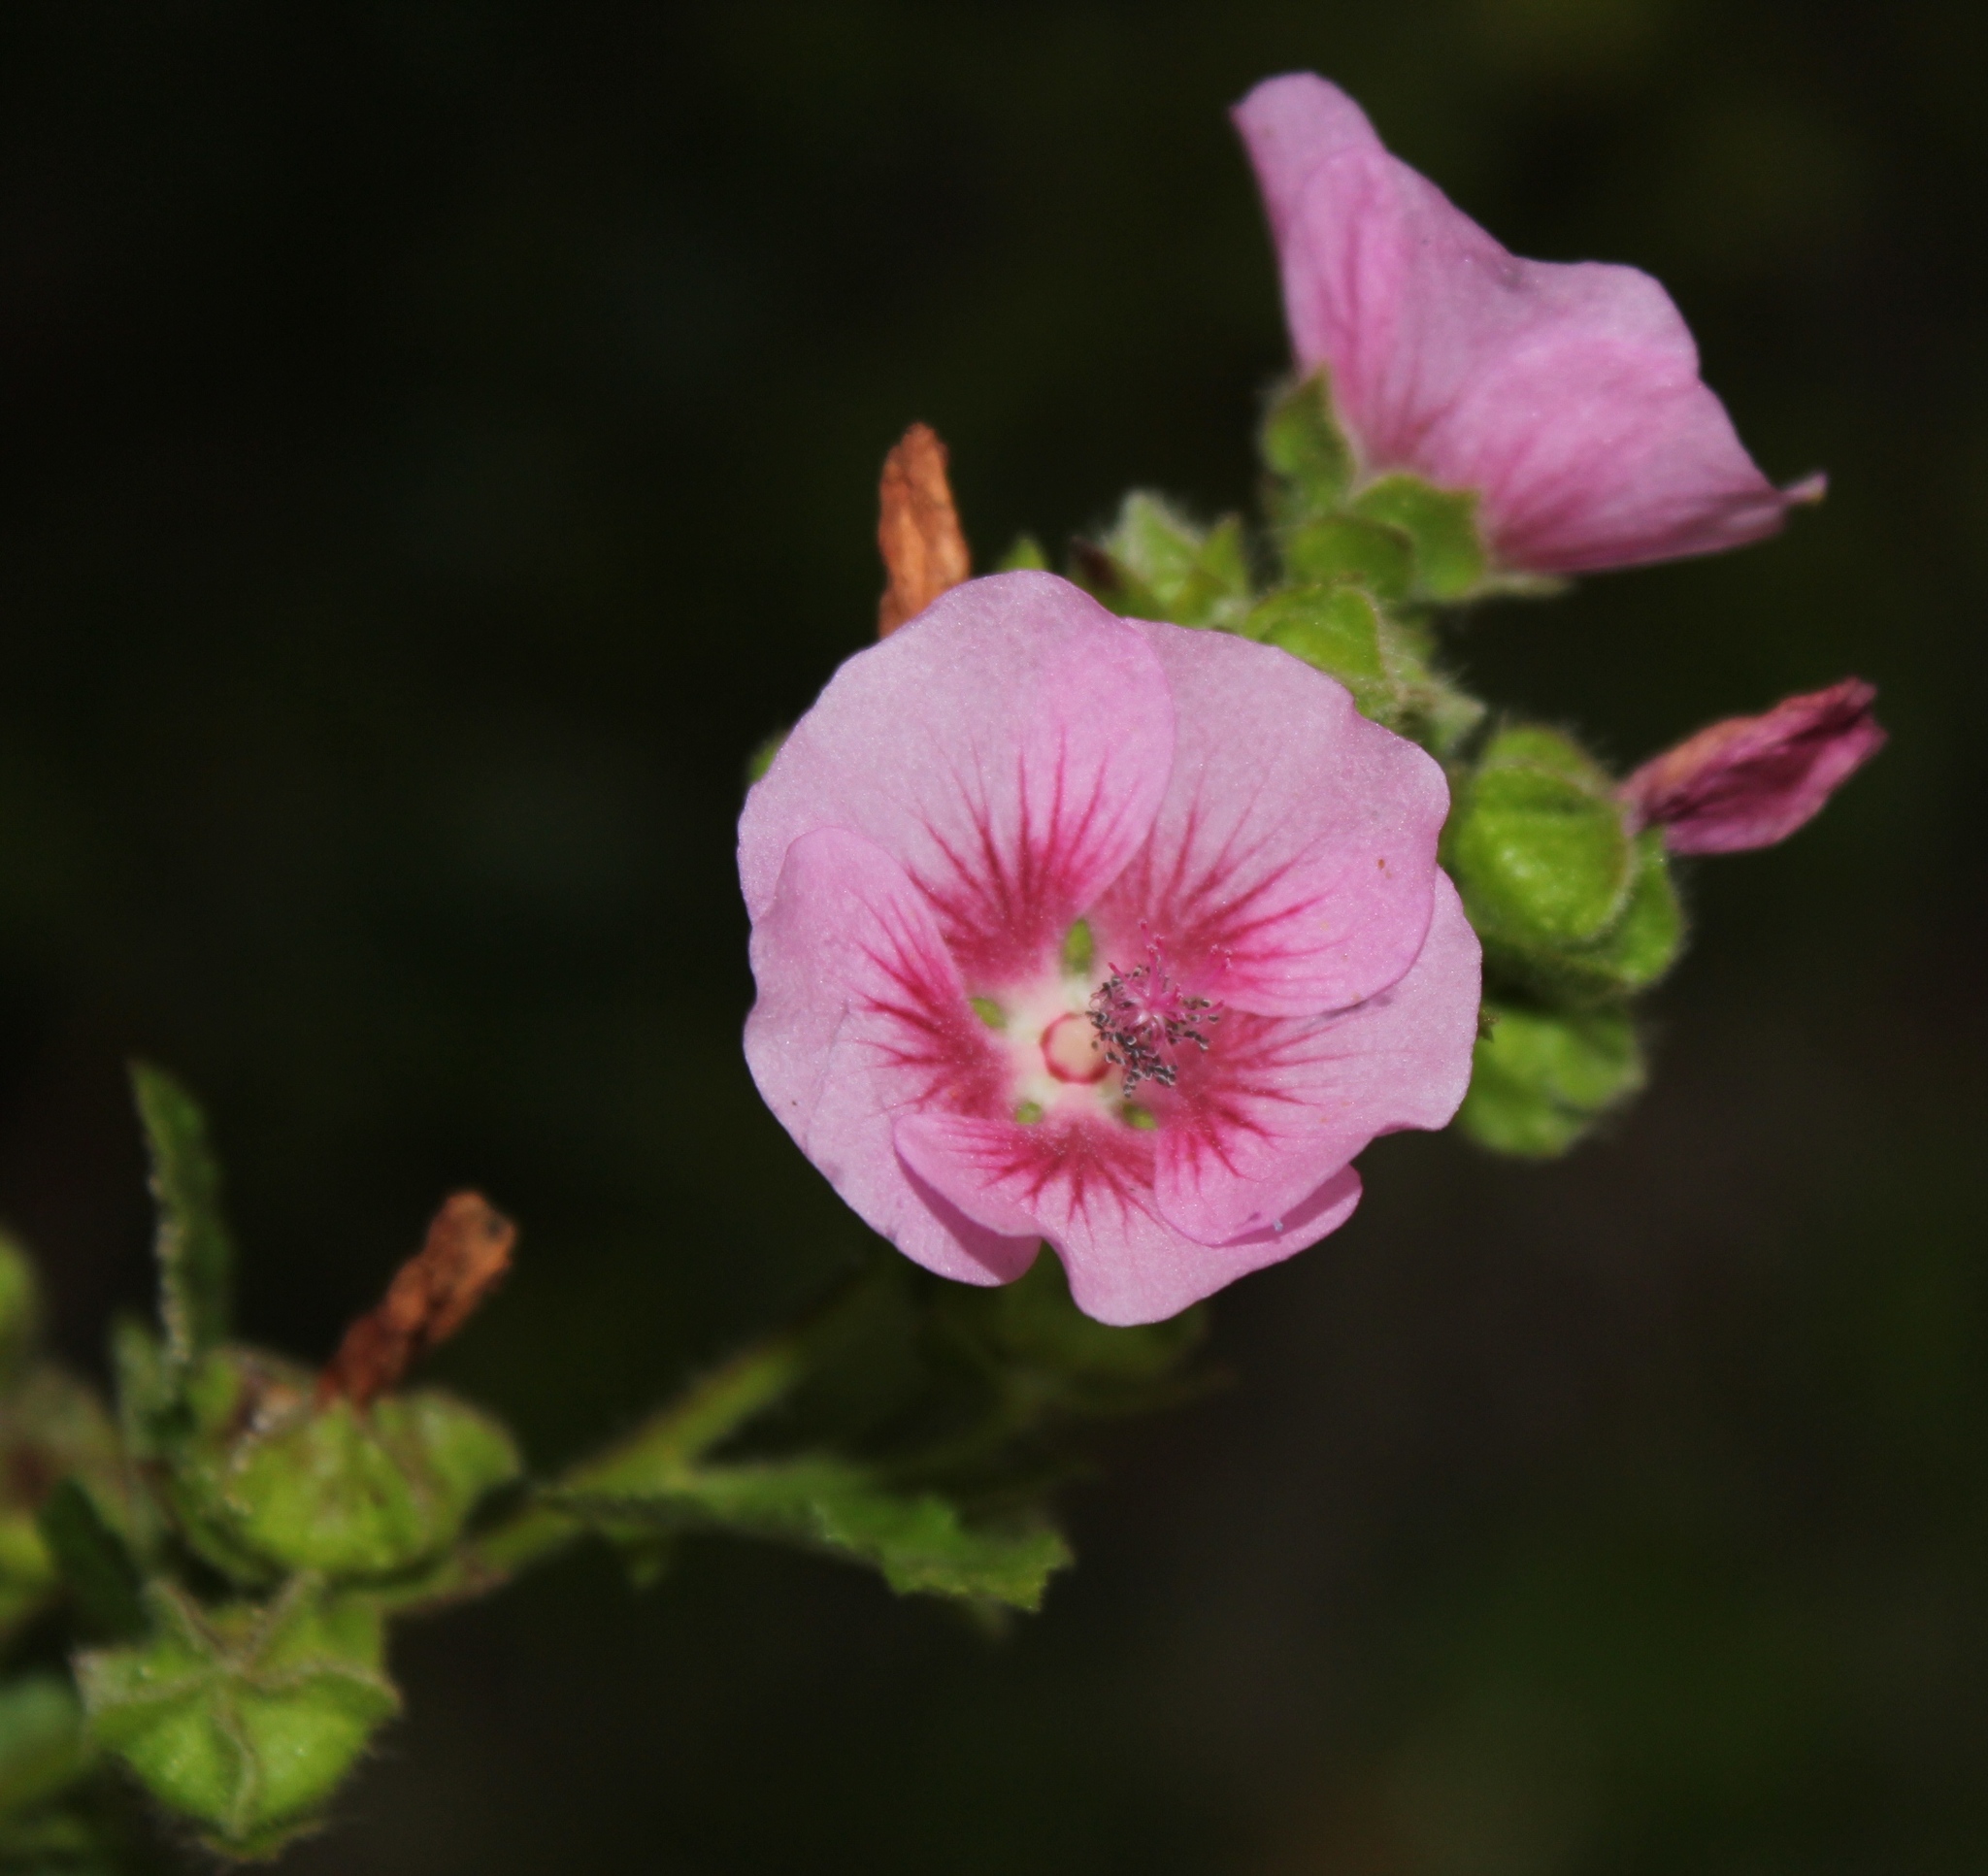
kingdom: Plantae
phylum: Tracheophyta
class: Magnoliopsida
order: Malvales
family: Malvaceae
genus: Anisodontea
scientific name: Anisodontea scabrosa
